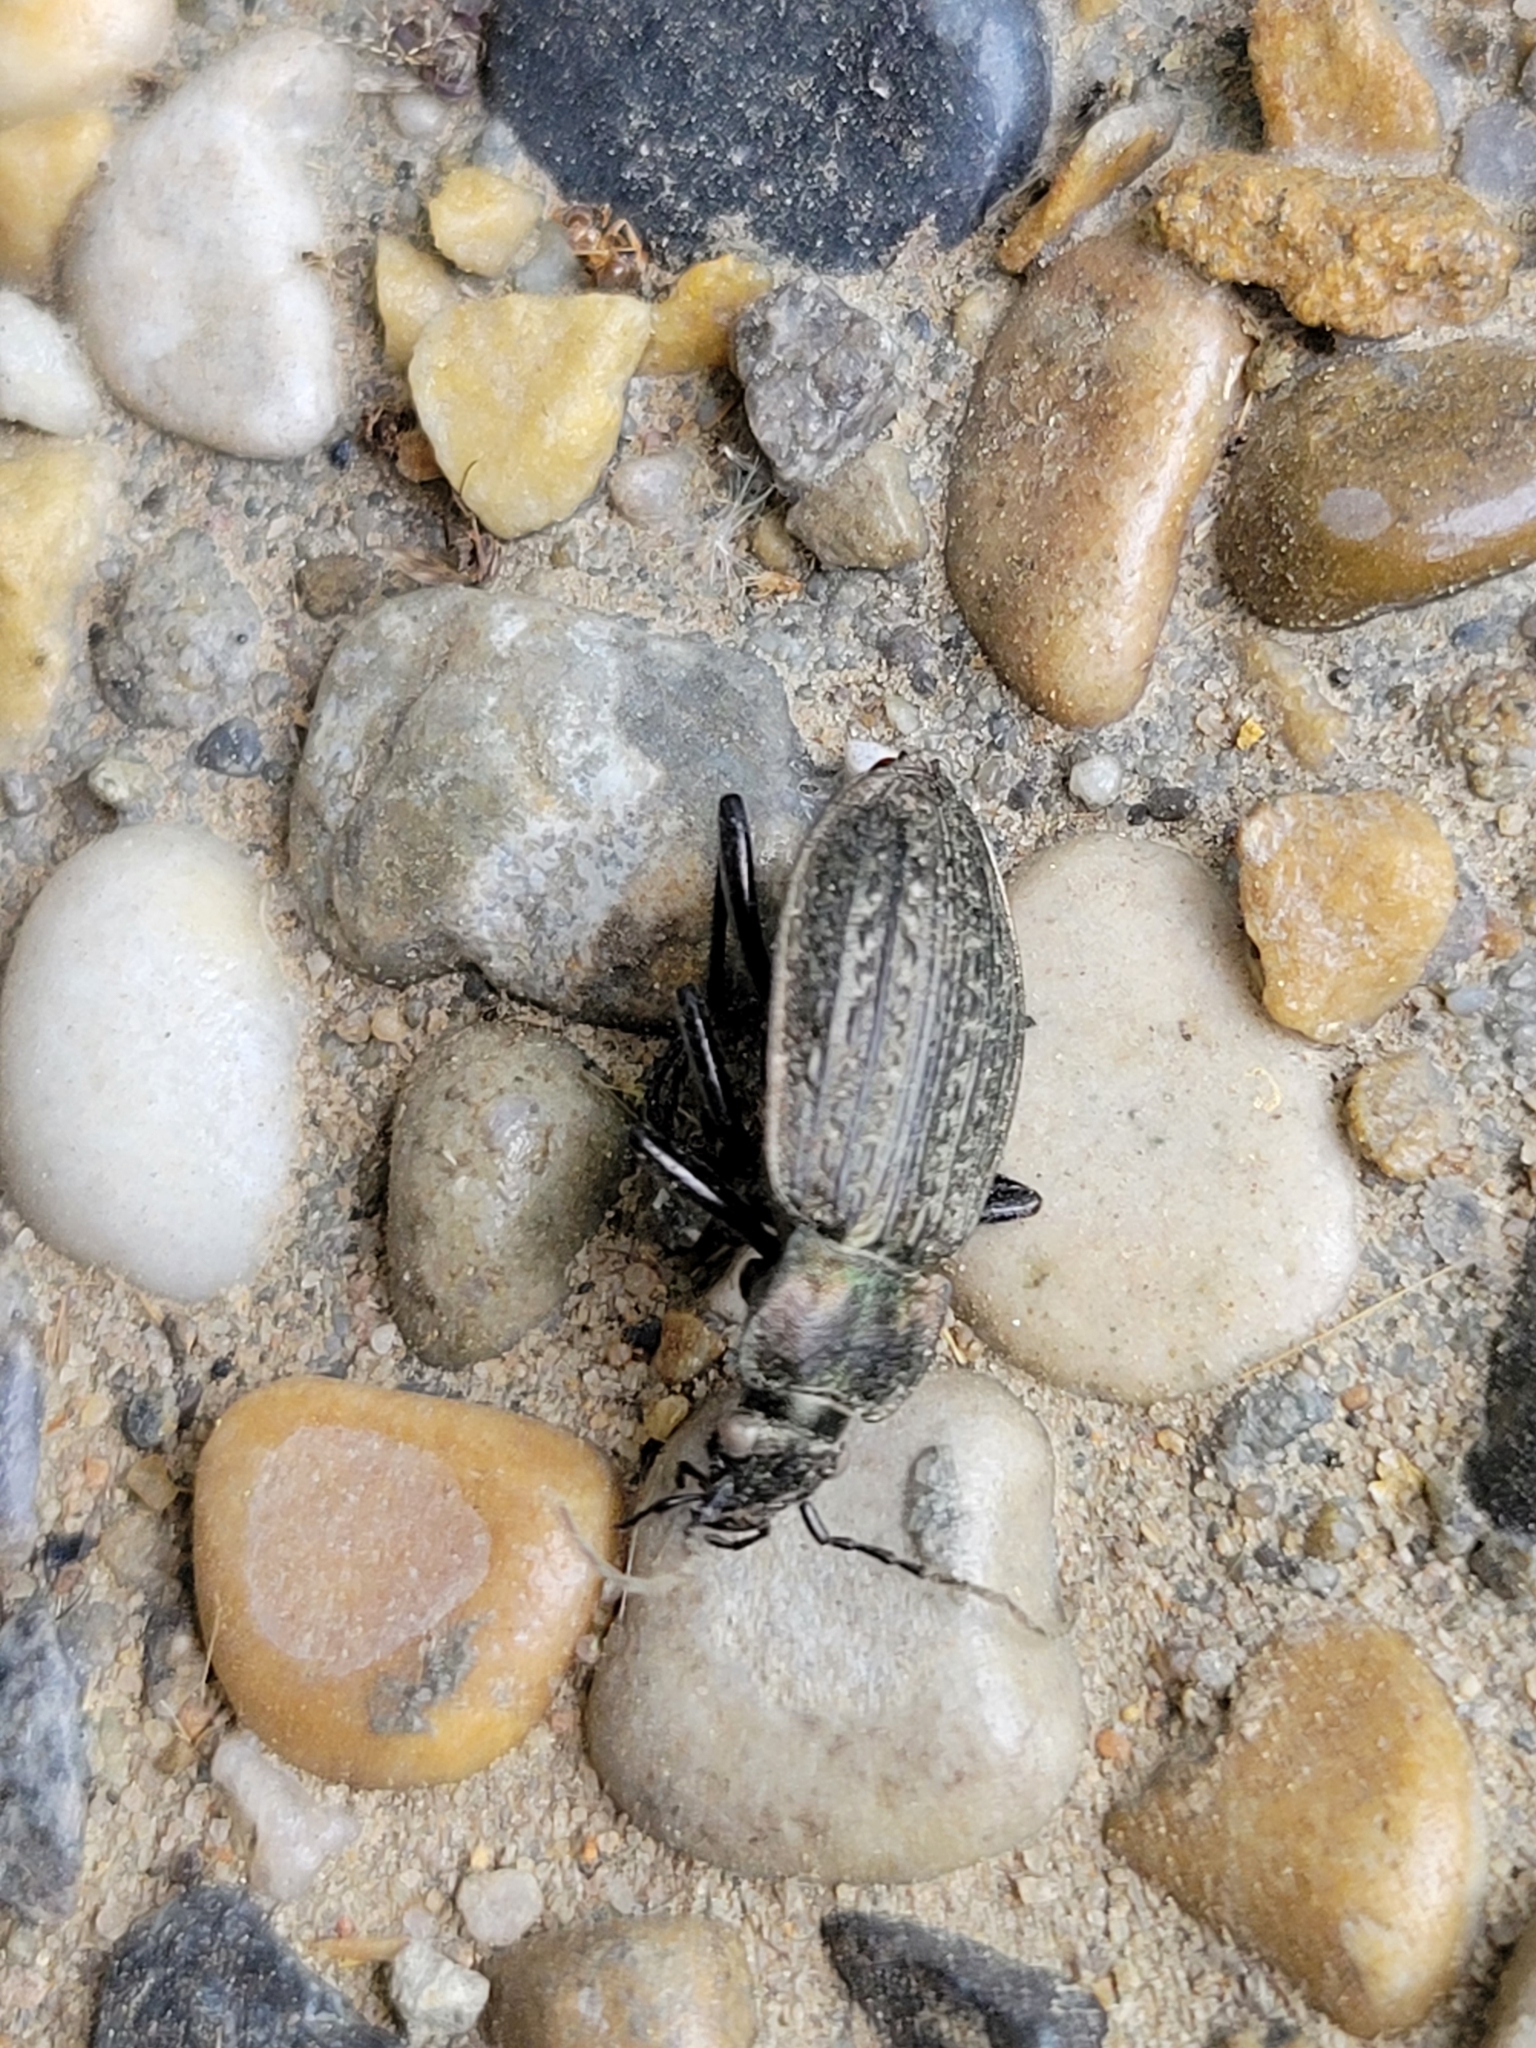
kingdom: Animalia
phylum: Arthropoda
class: Insecta
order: Coleoptera
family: Carabidae
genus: Carabus
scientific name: Carabus granulatus
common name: Granulate ground beetle
